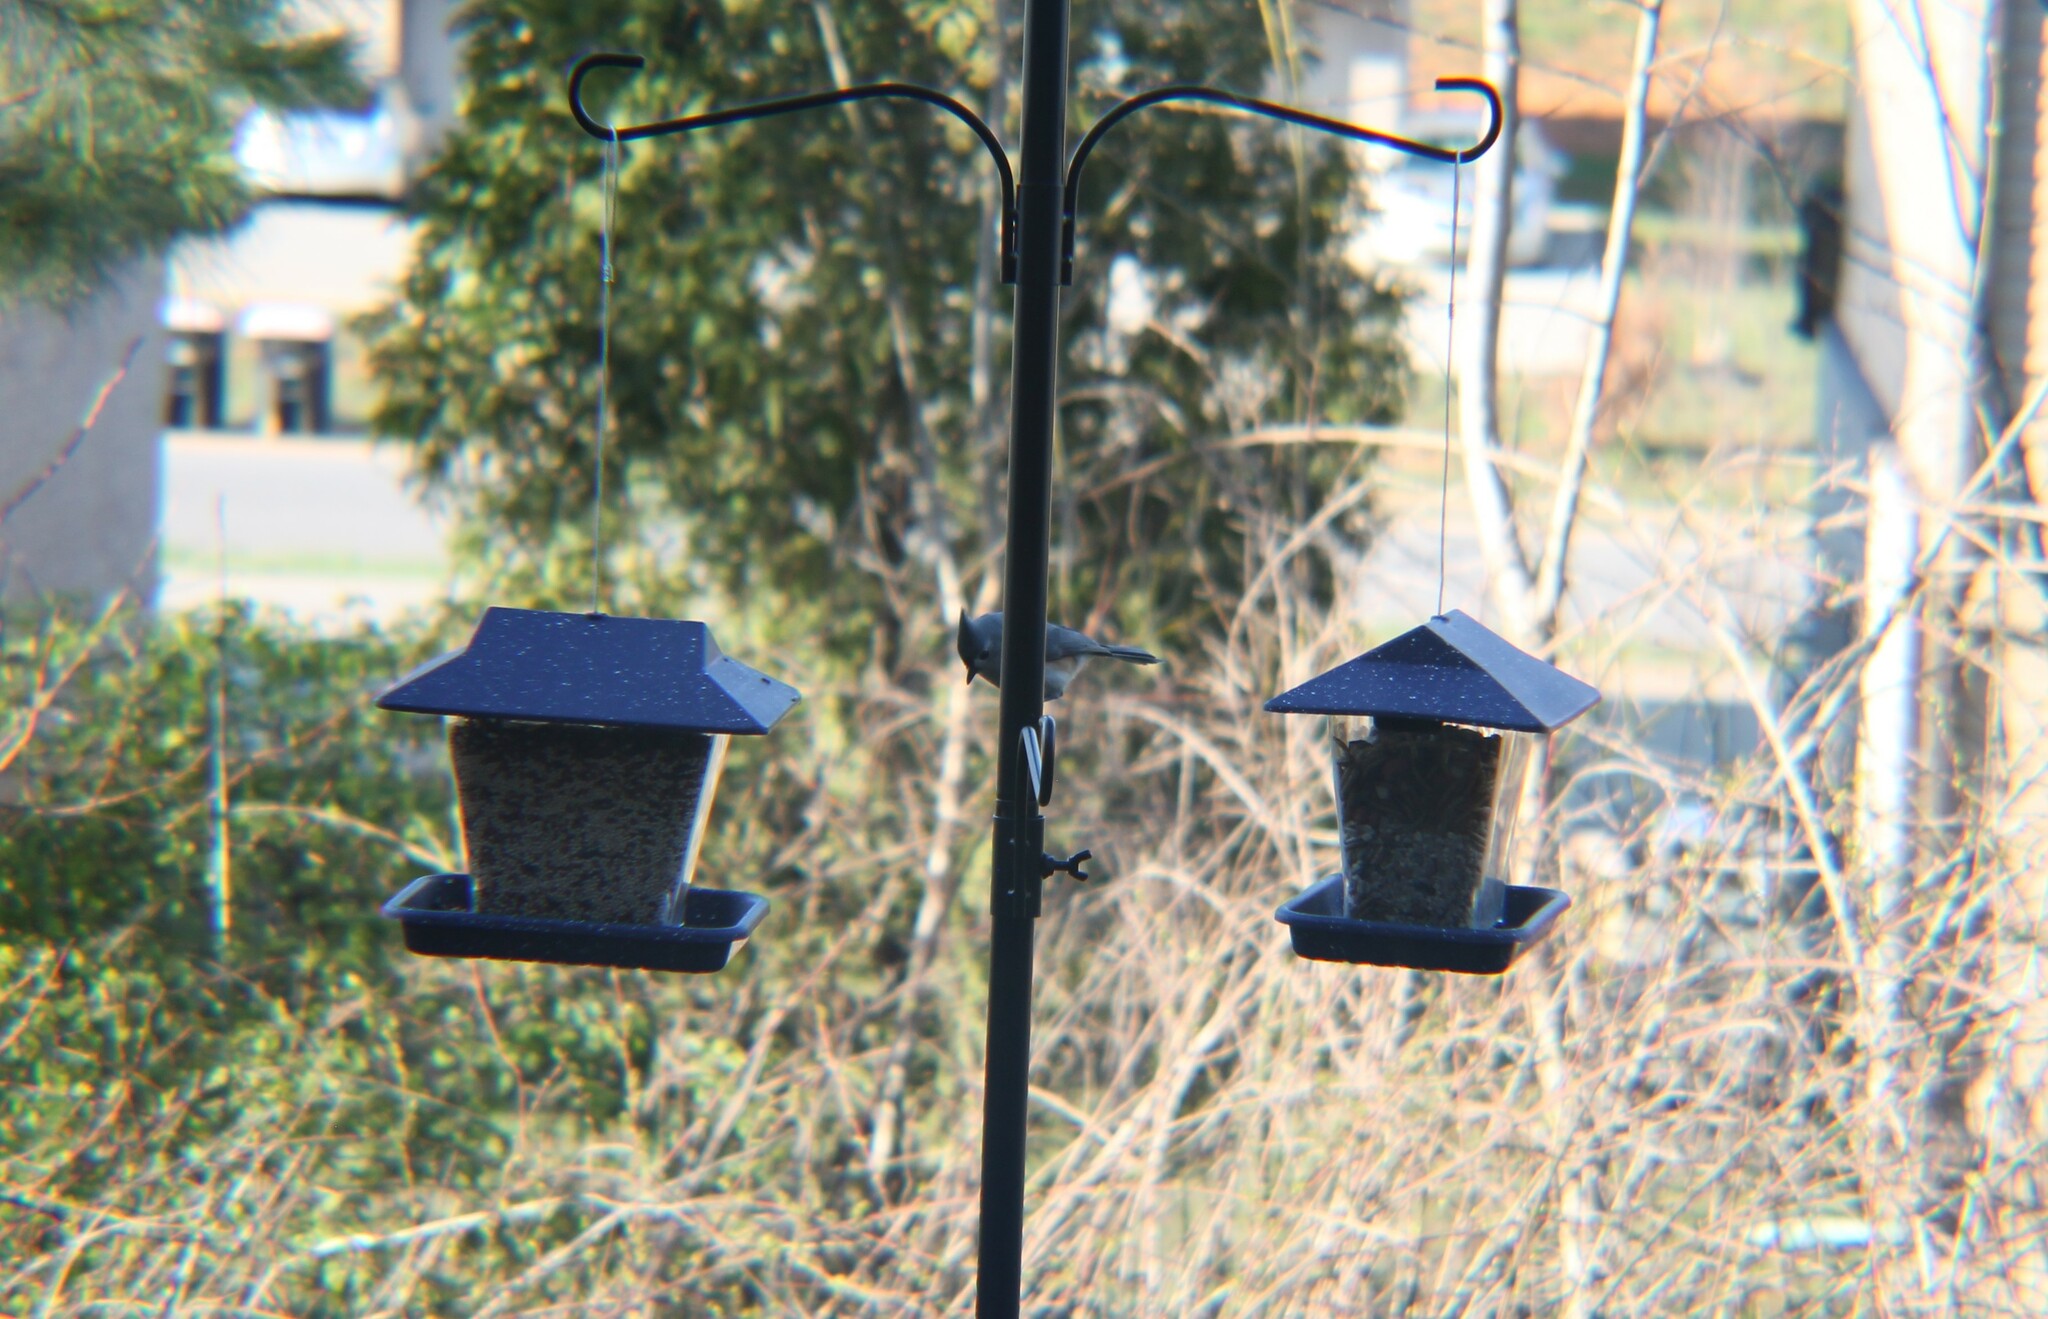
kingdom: Animalia
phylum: Chordata
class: Aves
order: Passeriformes
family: Paridae
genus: Baeolophus
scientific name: Baeolophus bicolor
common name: Tufted titmouse
